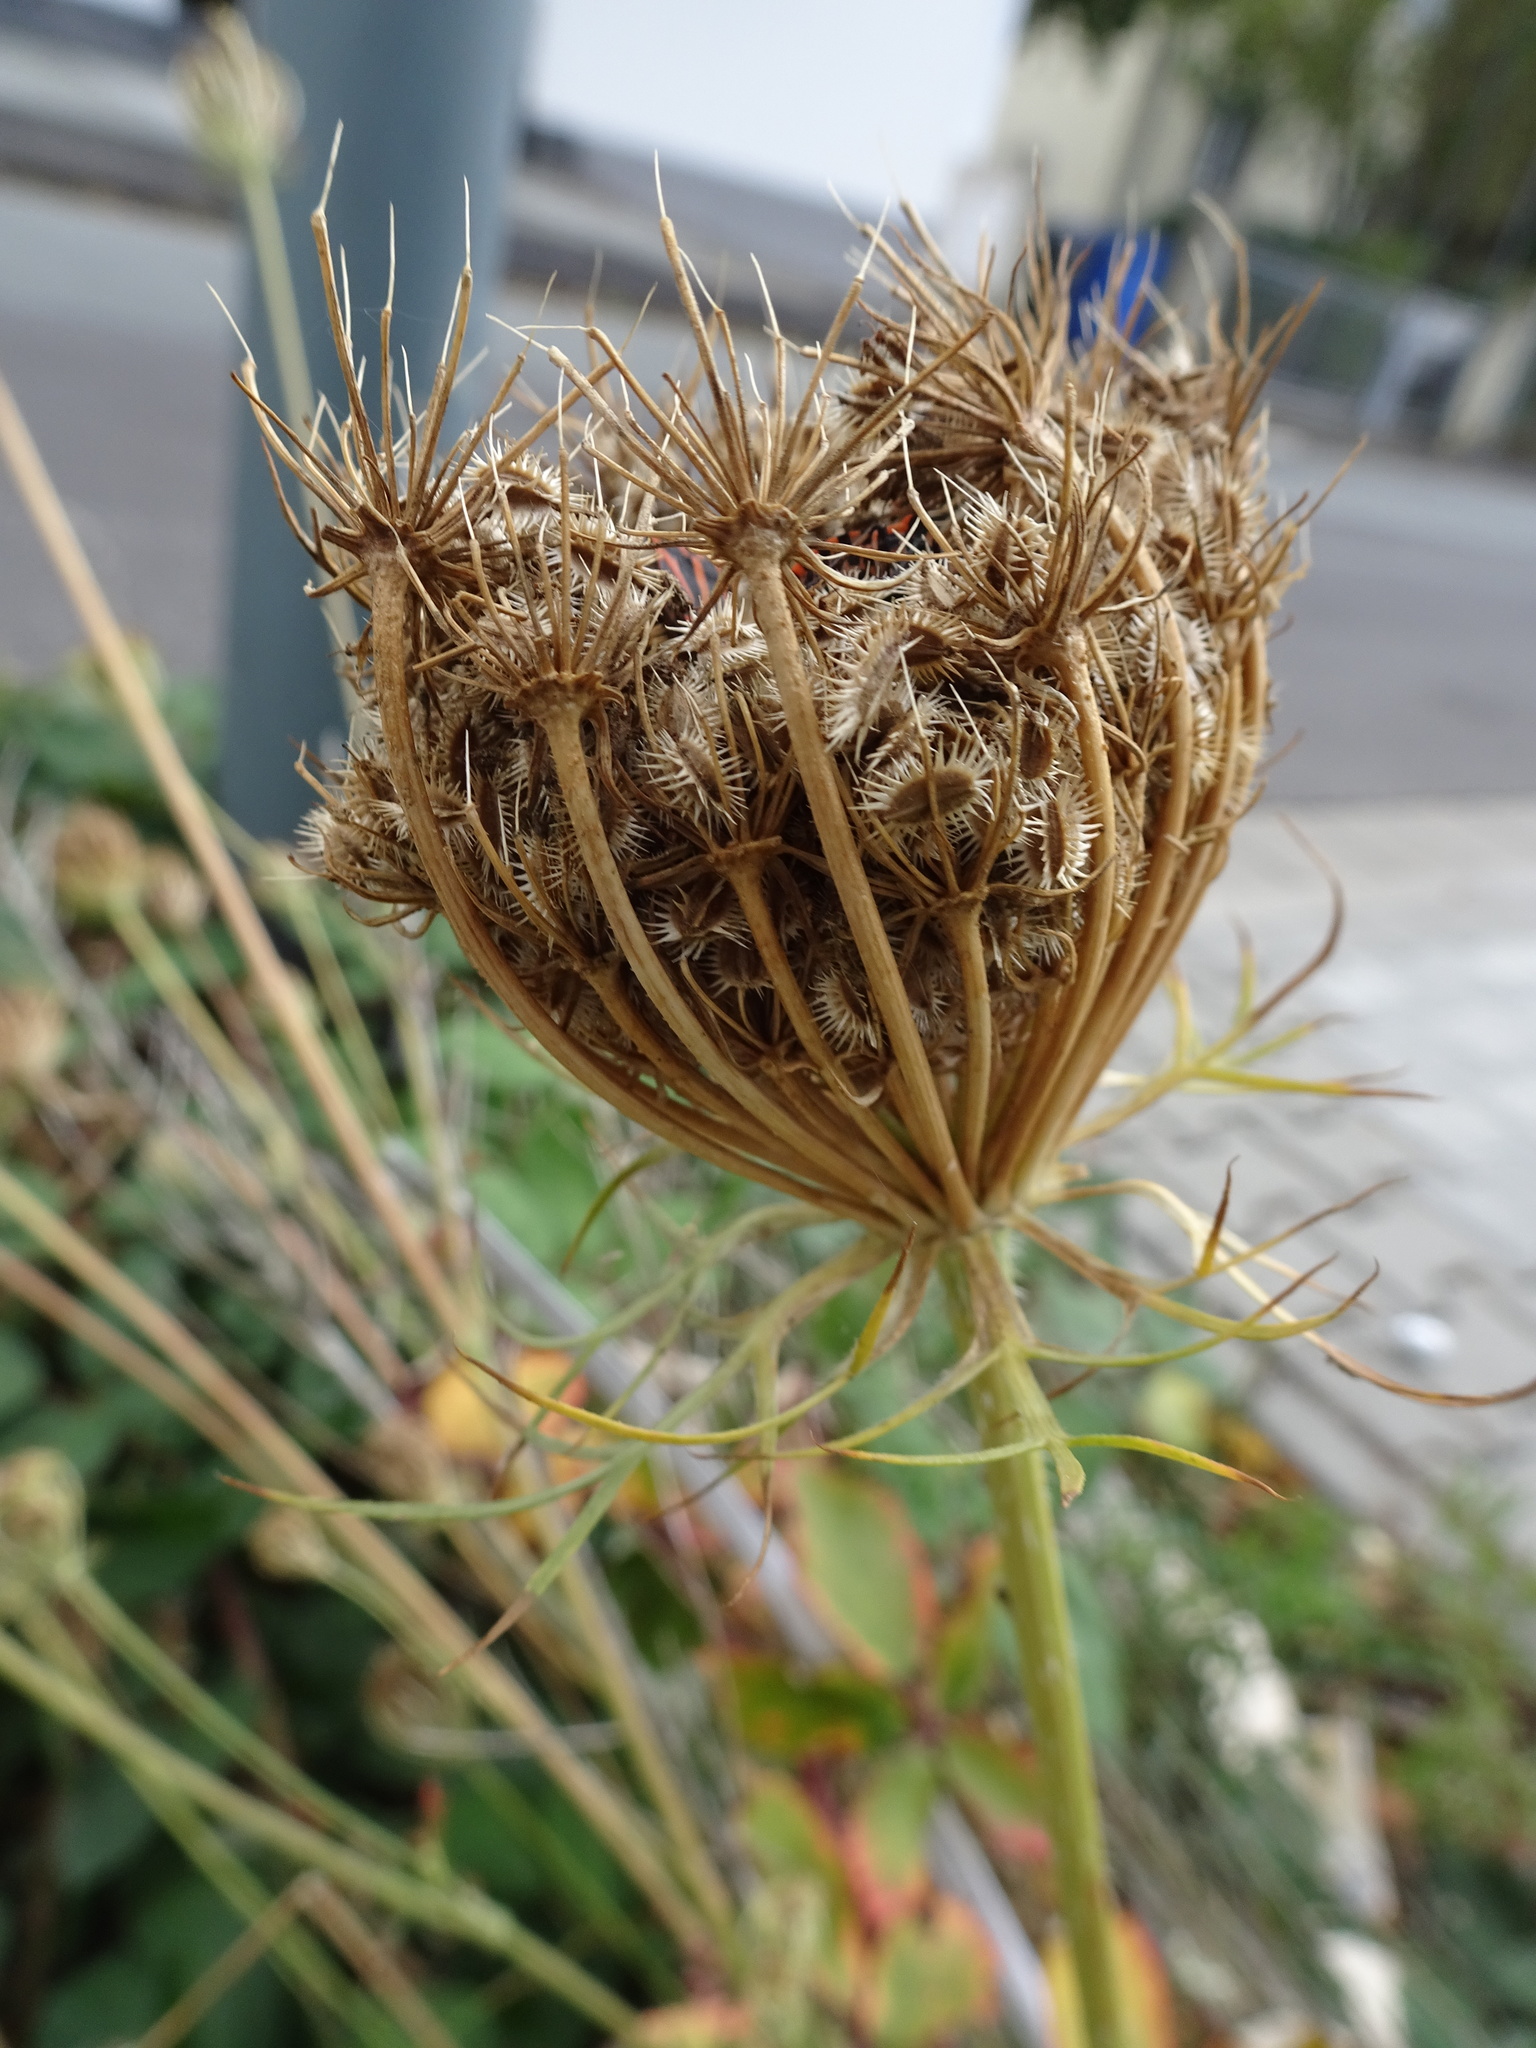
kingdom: Plantae
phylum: Tracheophyta
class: Magnoliopsida
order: Apiales
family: Apiaceae
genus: Daucus
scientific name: Daucus carota
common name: Wild carrot
